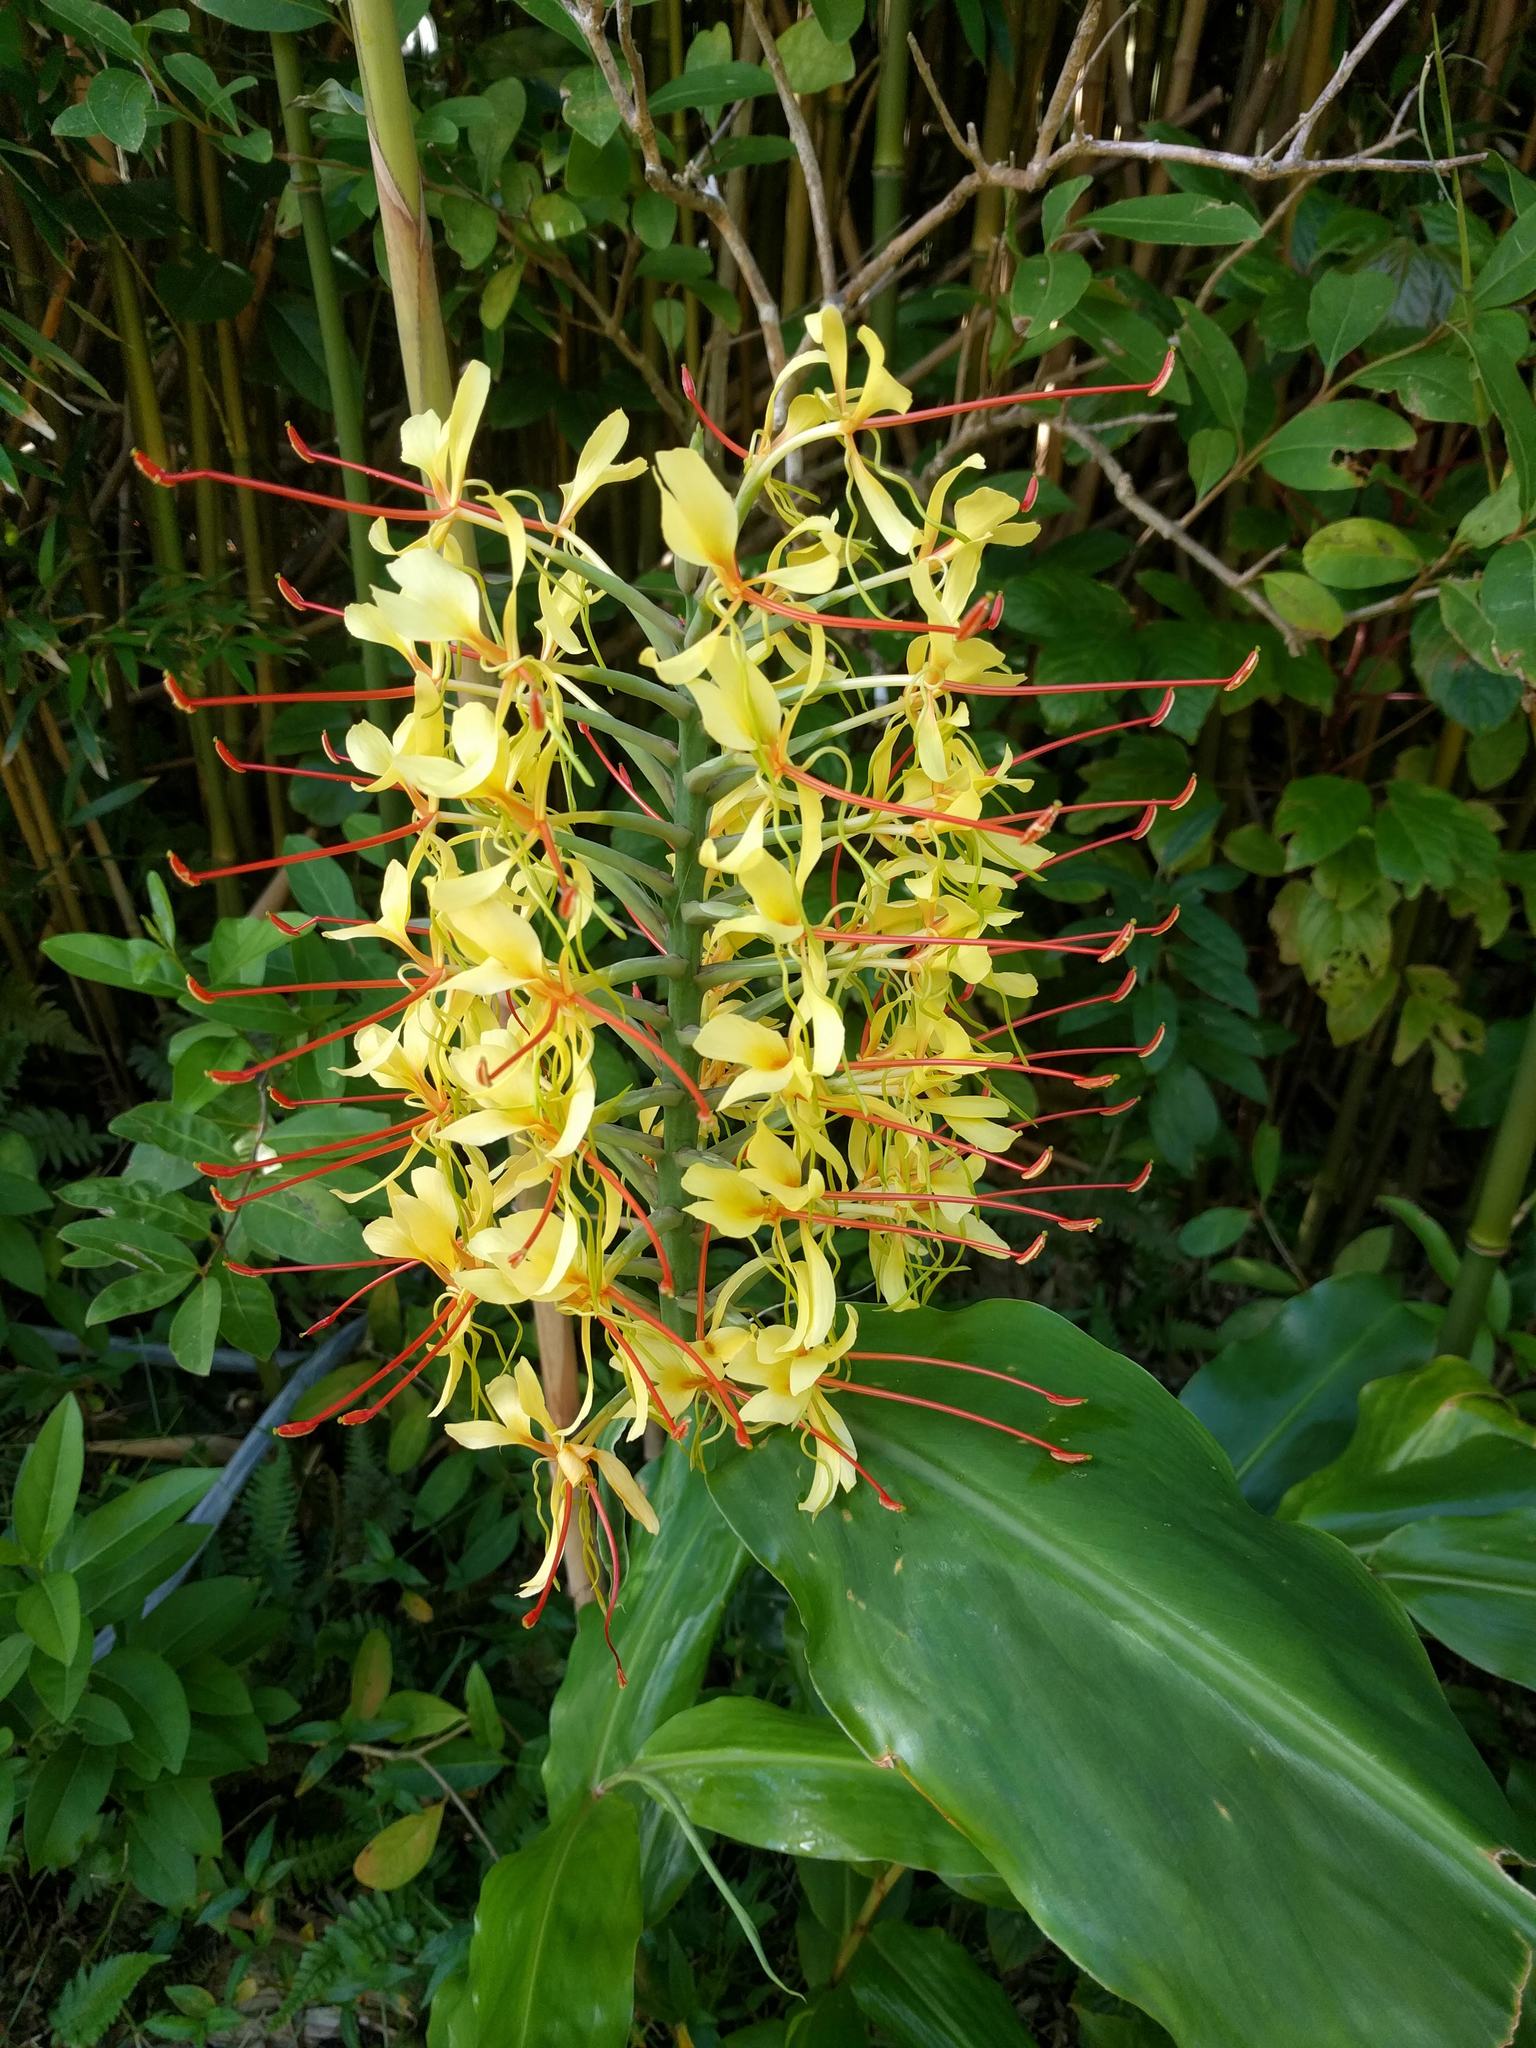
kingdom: Plantae
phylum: Tracheophyta
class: Liliopsida
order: Zingiberales
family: Zingiberaceae
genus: Hedychium
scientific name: Hedychium gardnerianum
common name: Himalayan ginger
